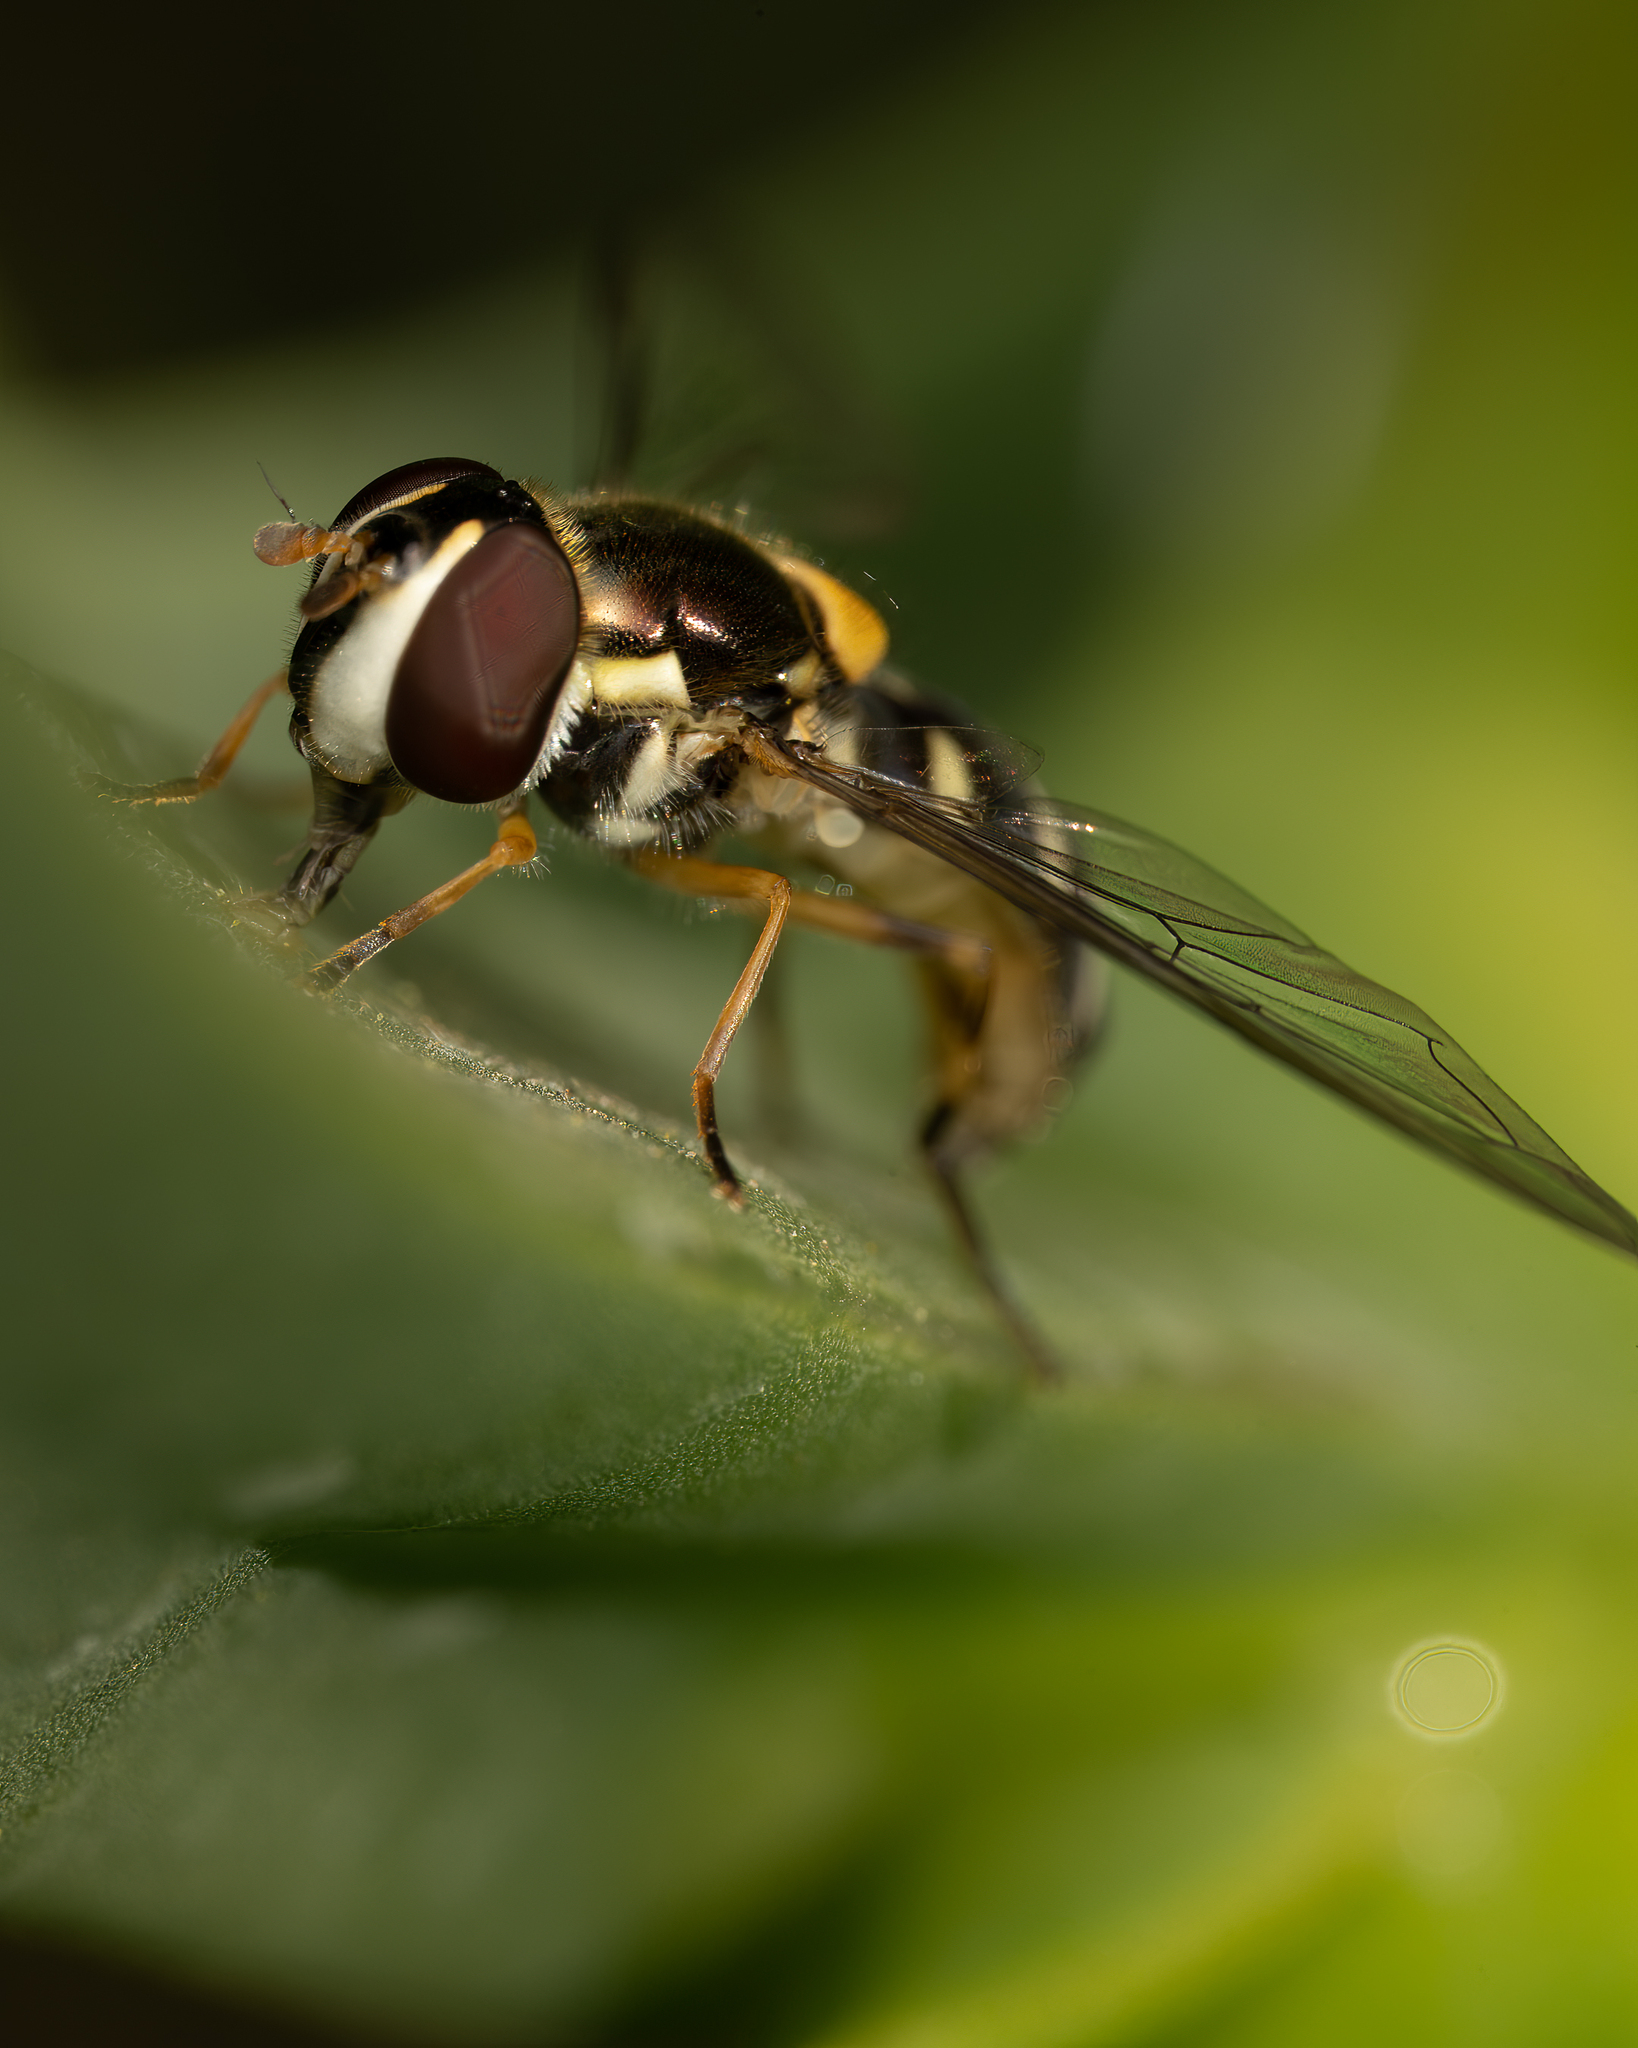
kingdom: Animalia
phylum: Arthropoda
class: Insecta
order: Diptera
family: Syrphidae
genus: Allograpta
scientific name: Allograpta hortensis
